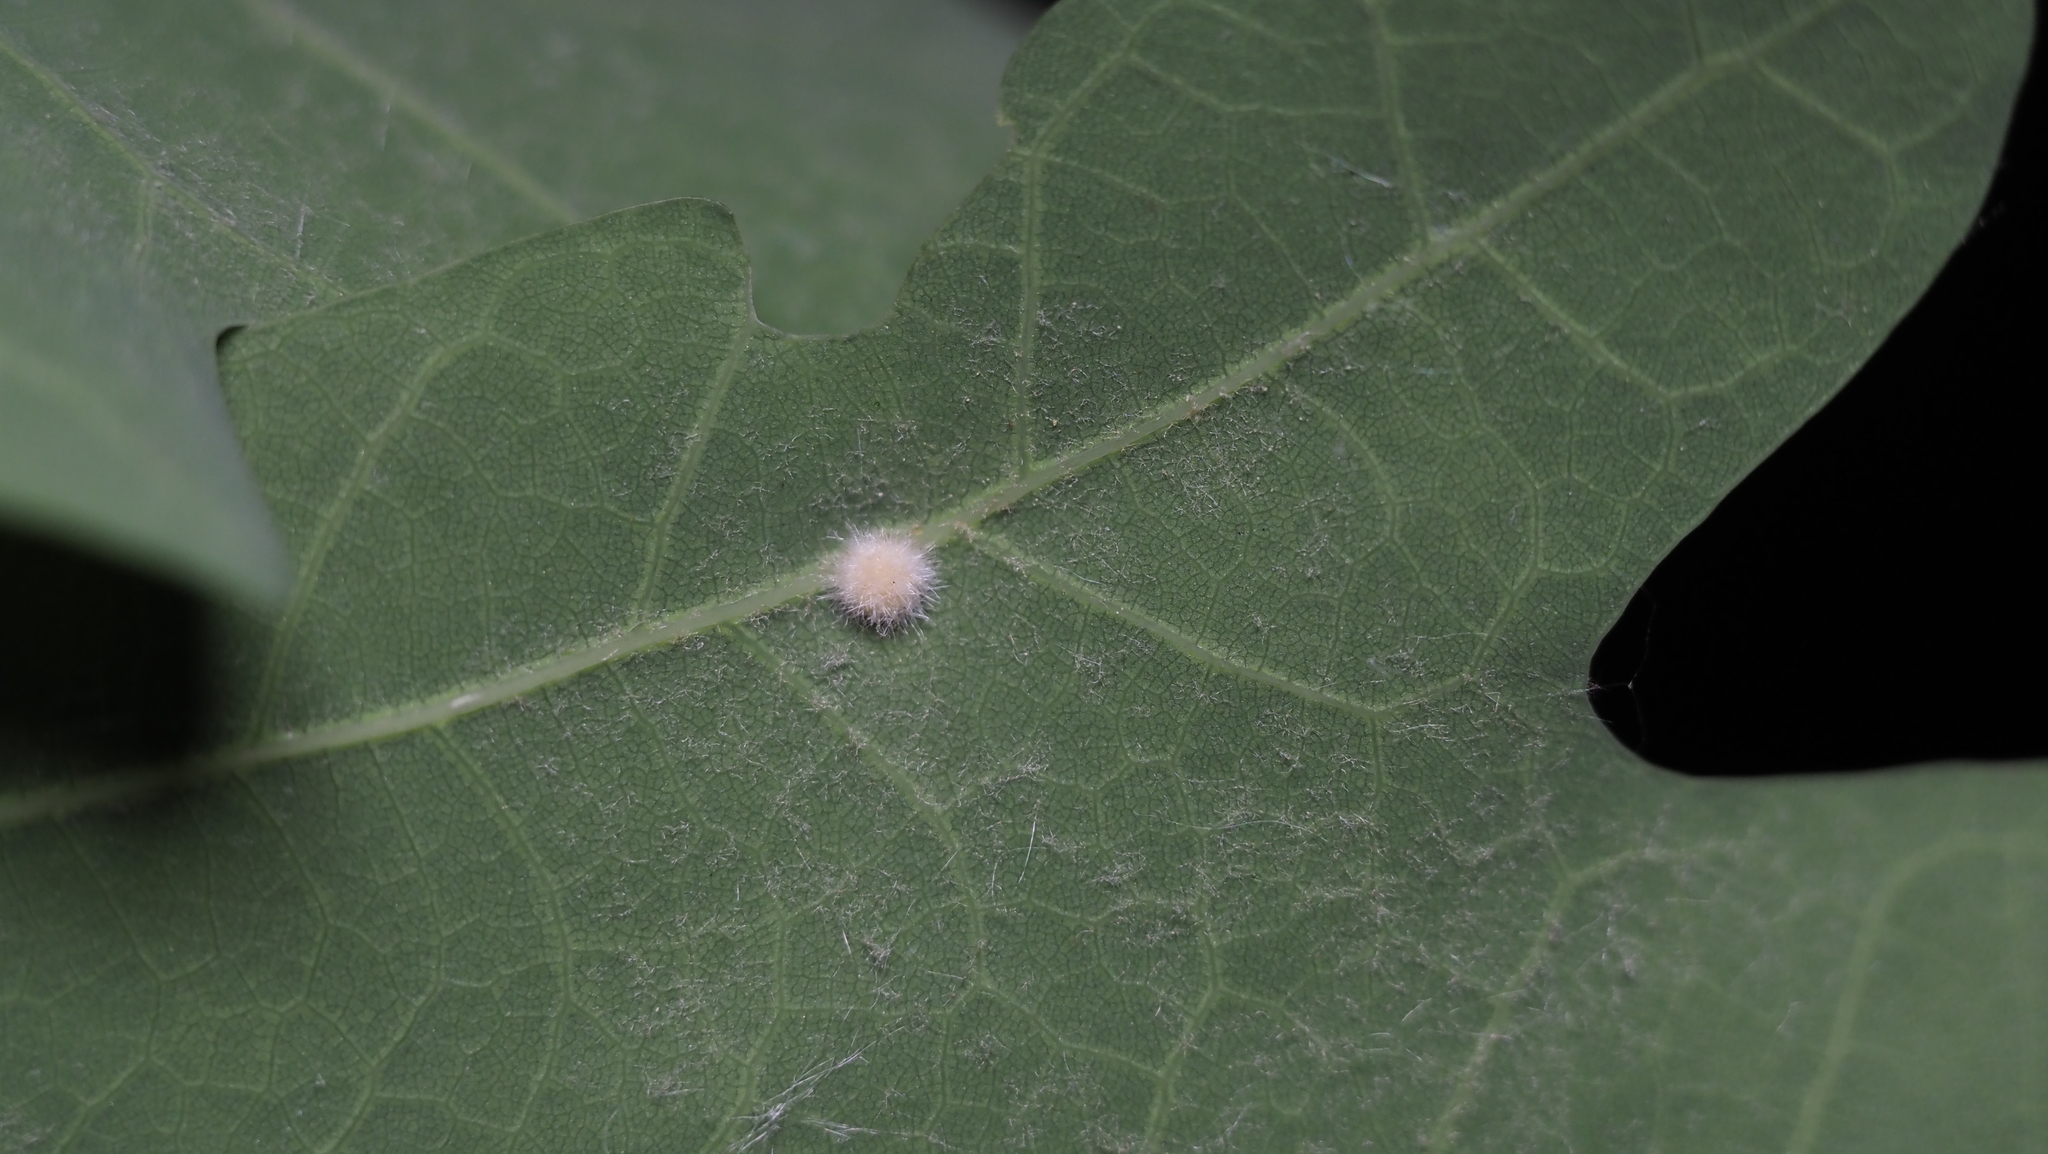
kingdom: Animalia
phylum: Arthropoda
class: Insecta
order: Hymenoptera
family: Cynipidae
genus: Philonix
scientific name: Philonix fulvicollis
